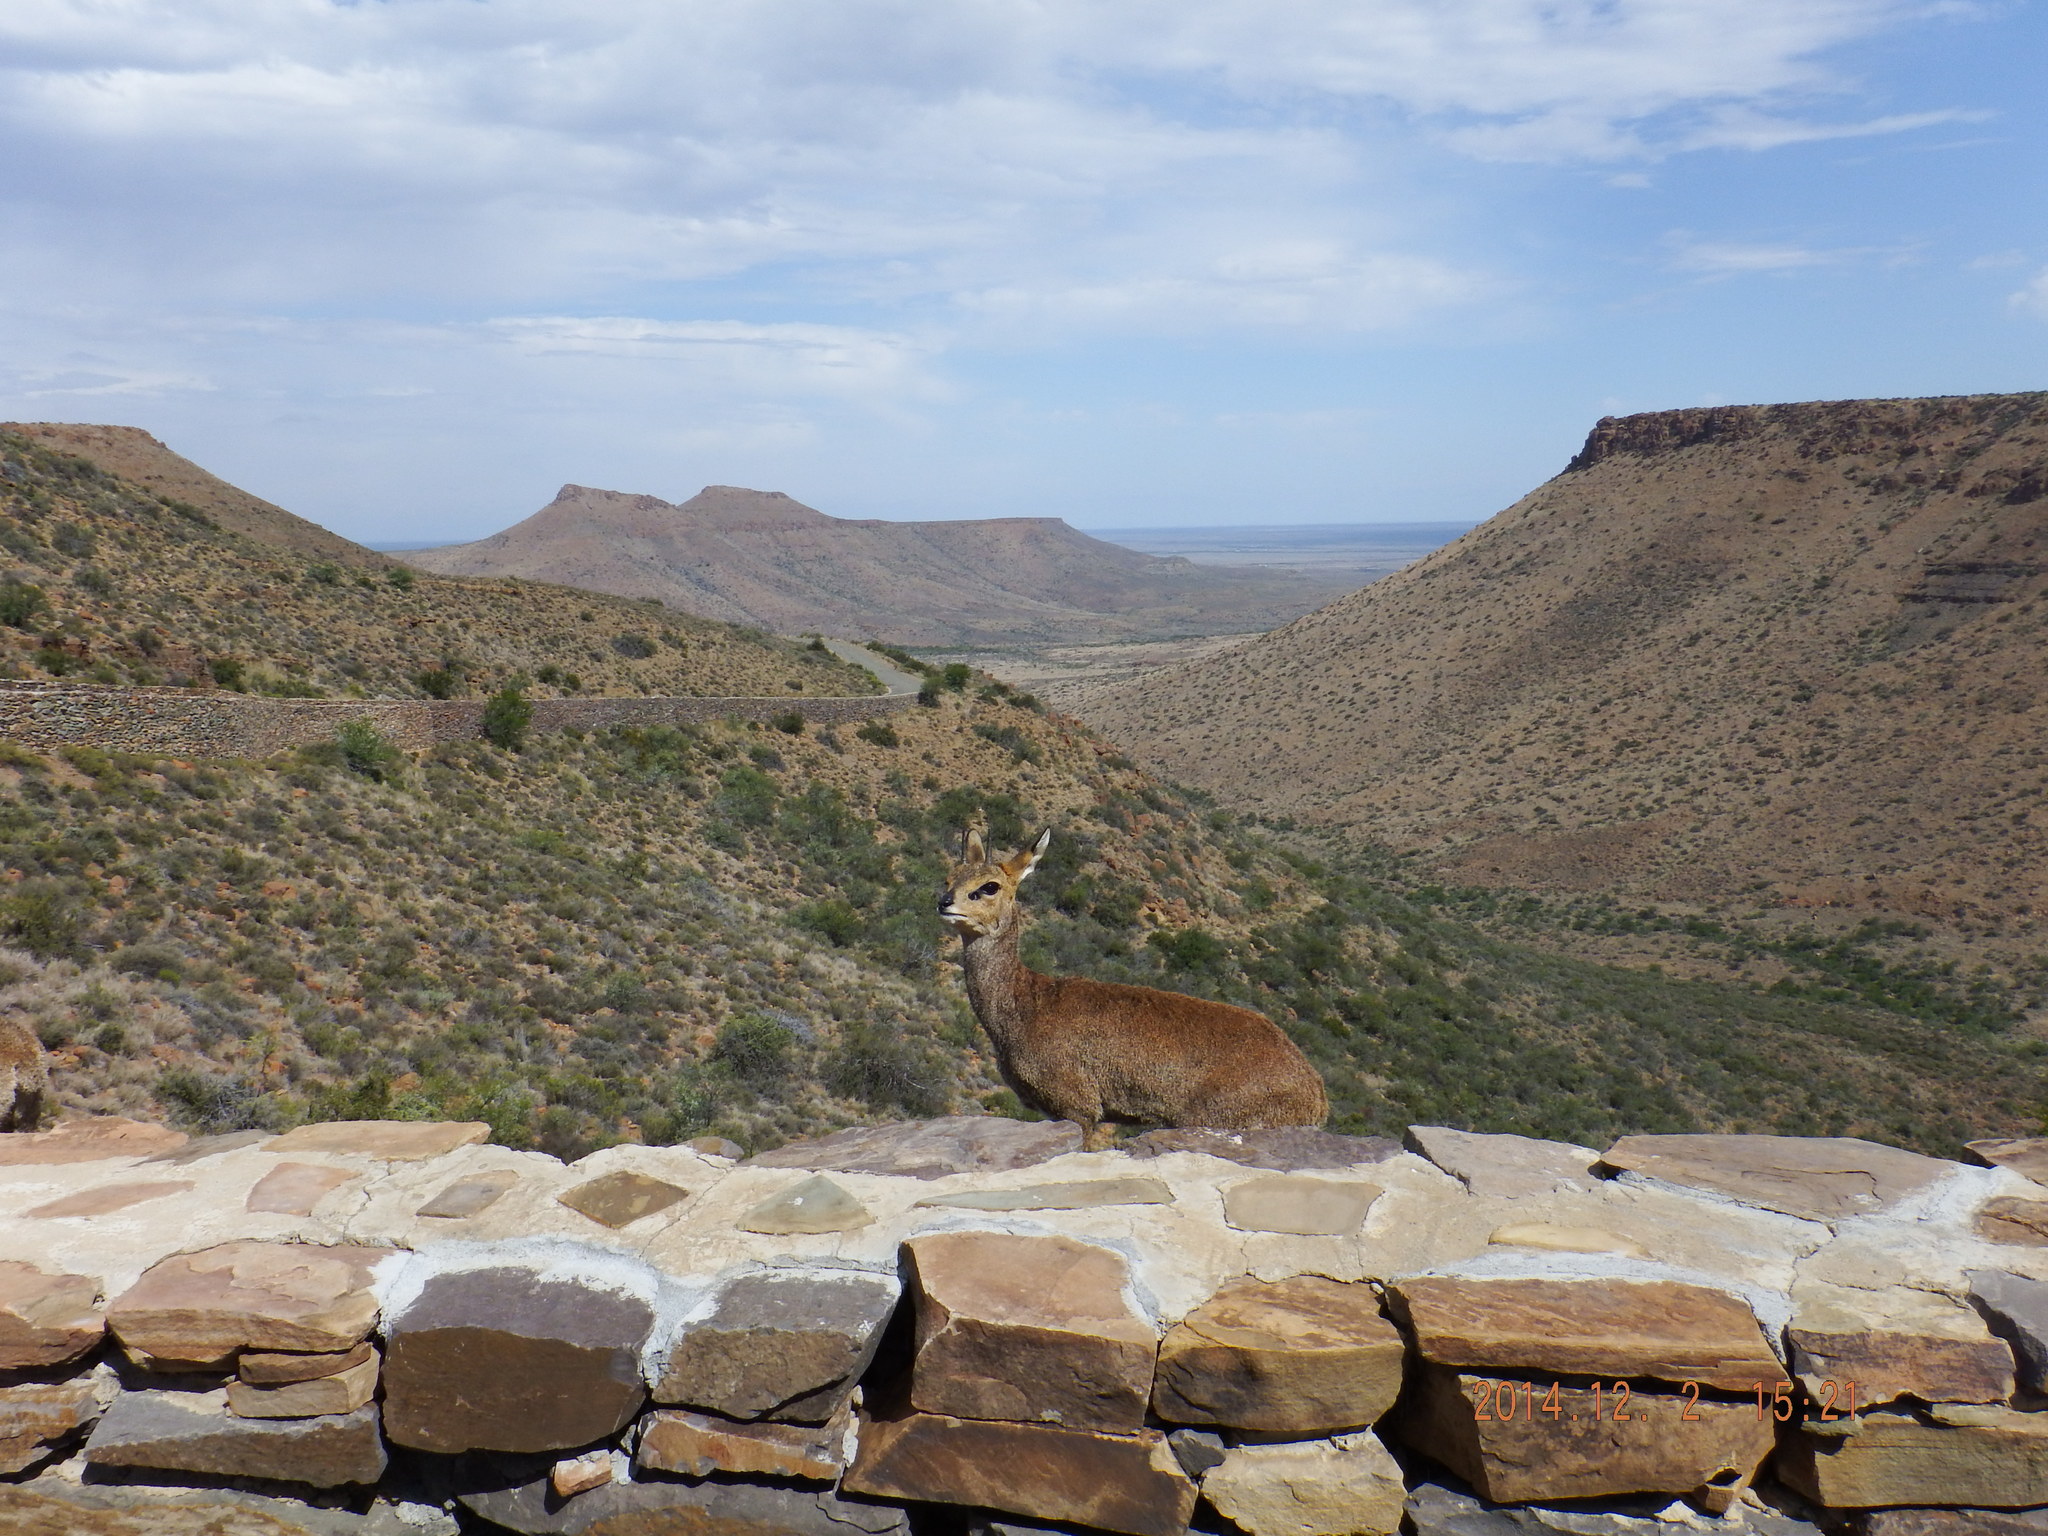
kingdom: Animalia
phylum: Chordata
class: Mammalia
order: Artiodactyla
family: Bovidae
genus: Oreotragus
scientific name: Oreotragus oreotragus
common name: Klipspringer
